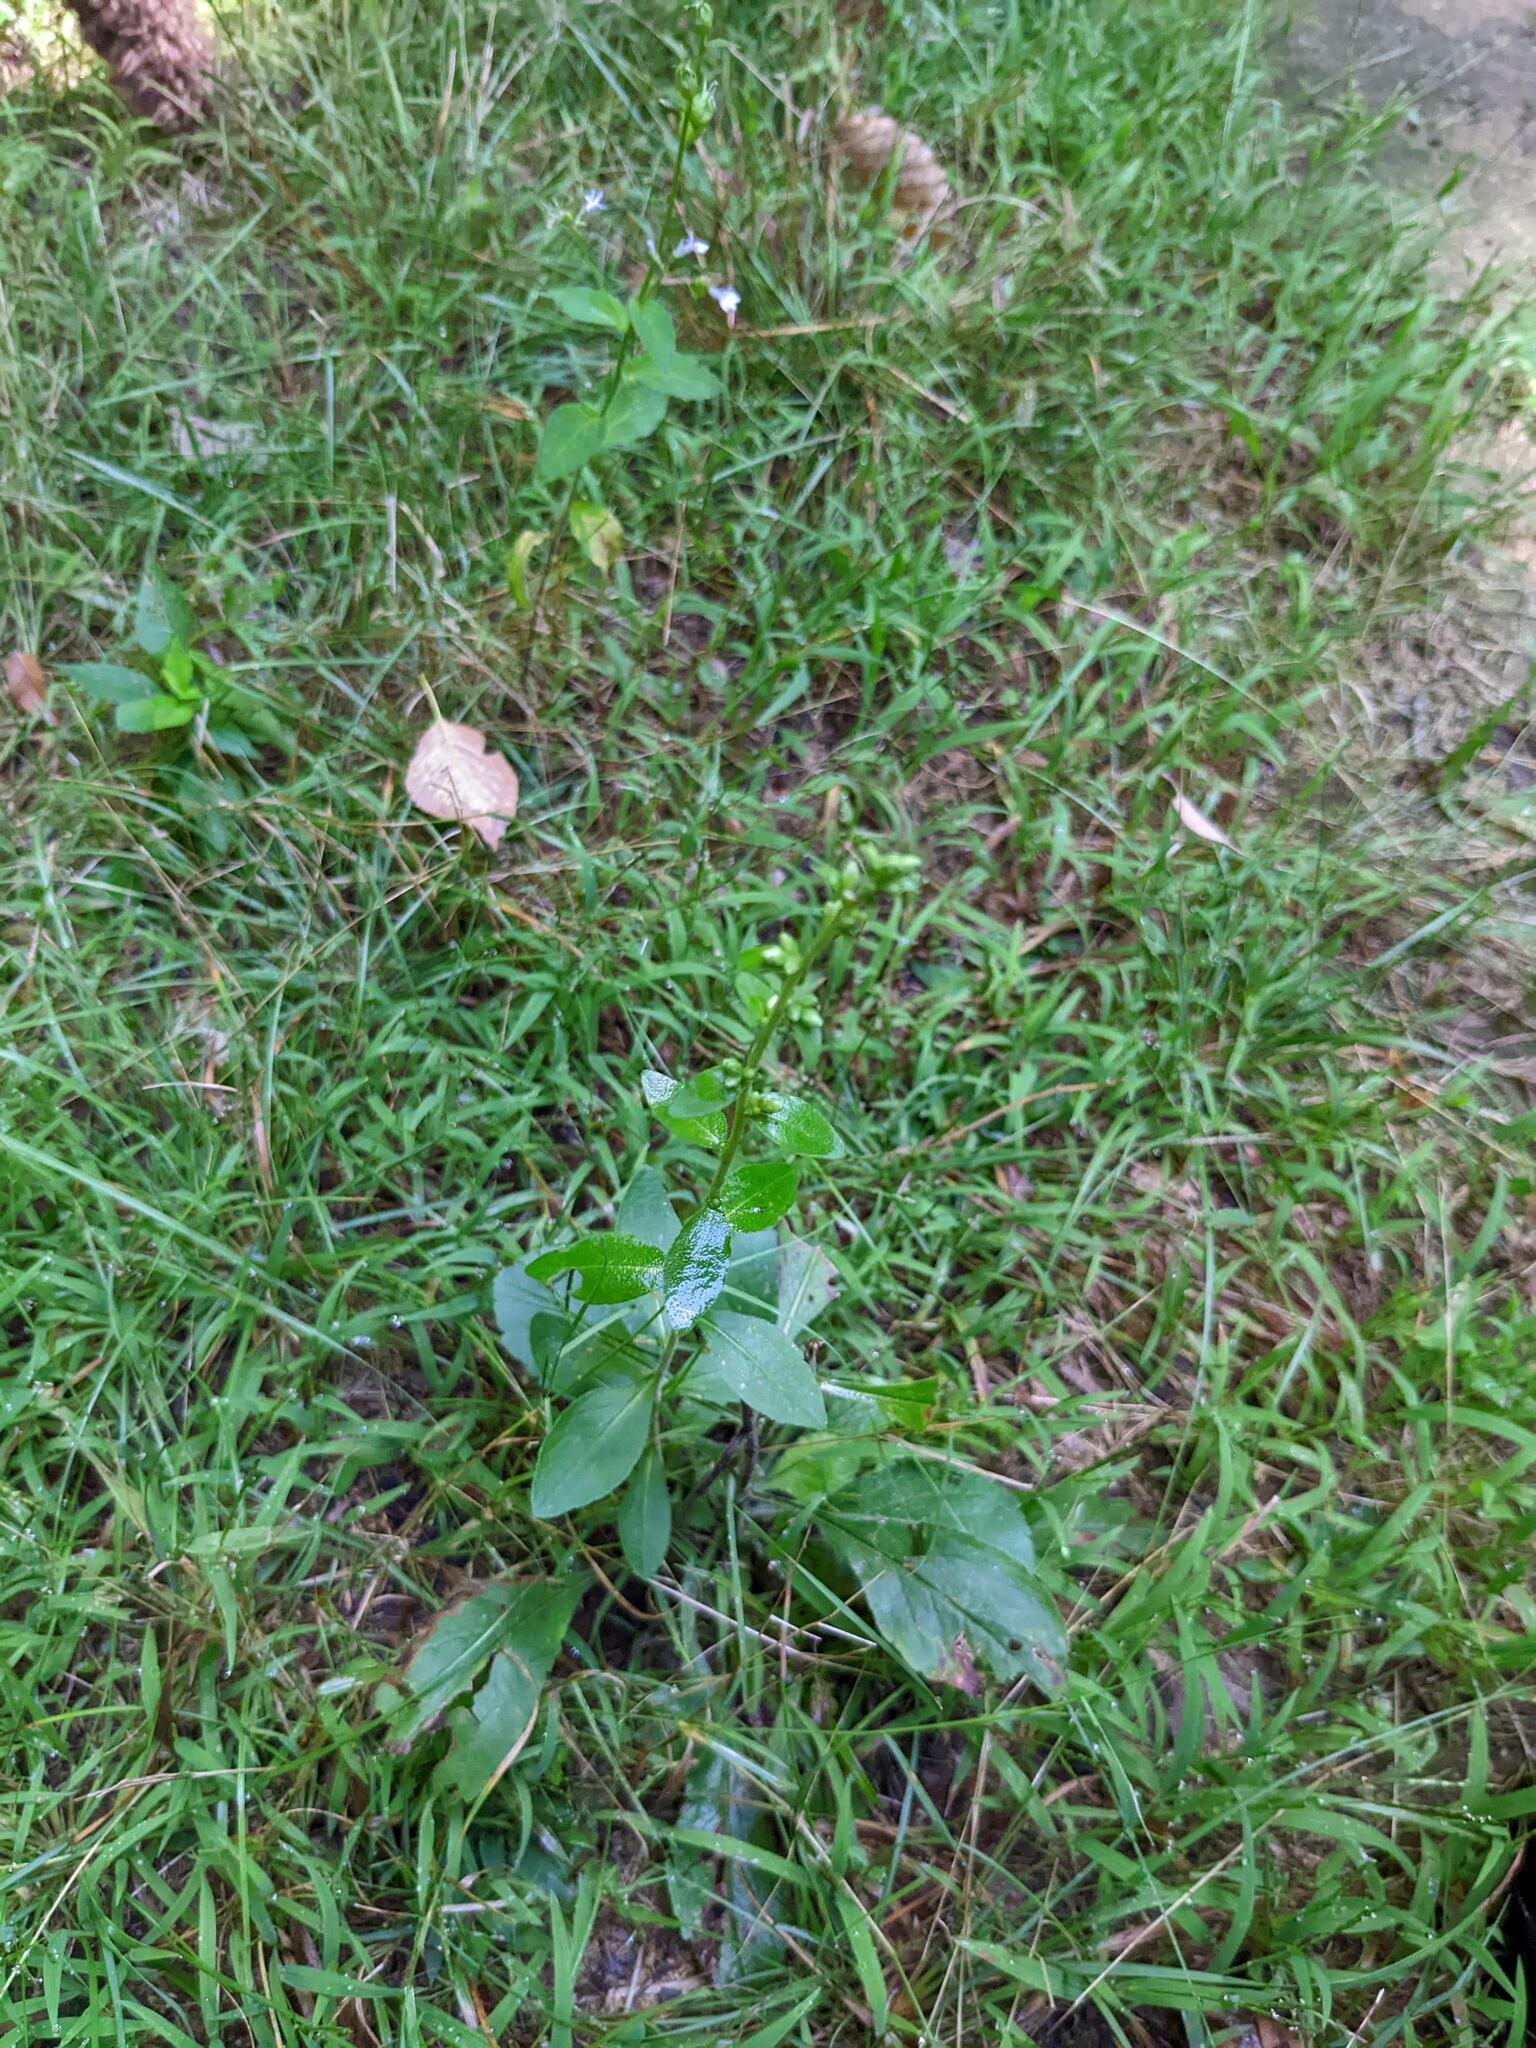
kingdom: Plantae
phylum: Tracheophyta
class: Magnoliopsida
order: Asterales
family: Campanulaceae
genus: Lobelia
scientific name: Lobelia inflata
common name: Indian tobacco
